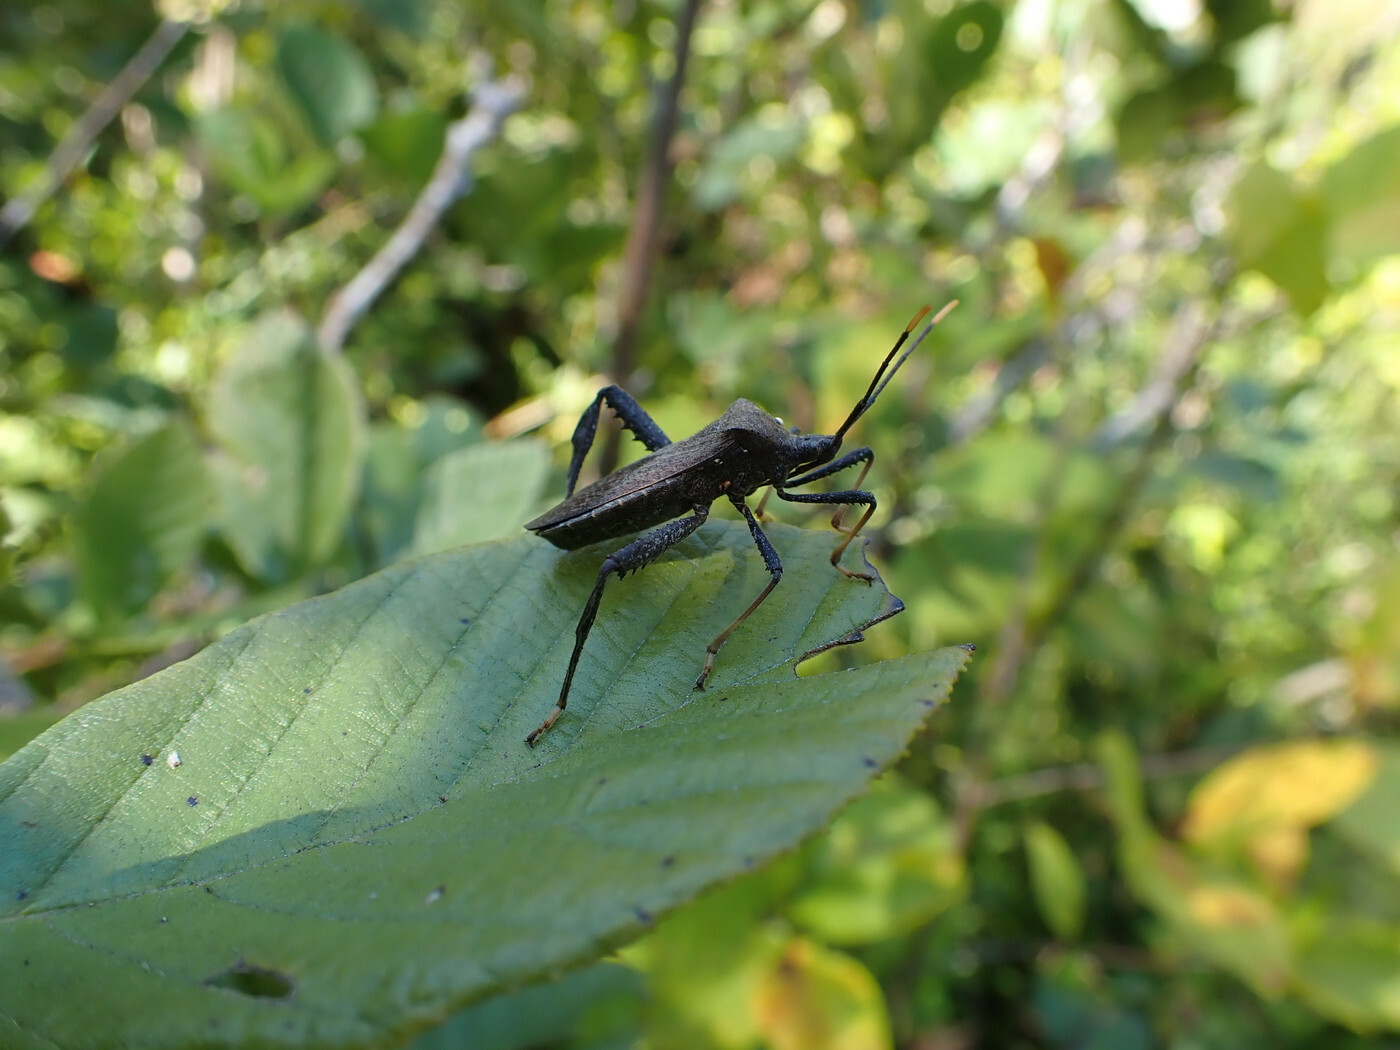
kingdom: Animalia
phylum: Arthropoda
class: Insecta
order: Hemiptera
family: Coreidae
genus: Acanthocephala
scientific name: Acanthocephala terminalis
